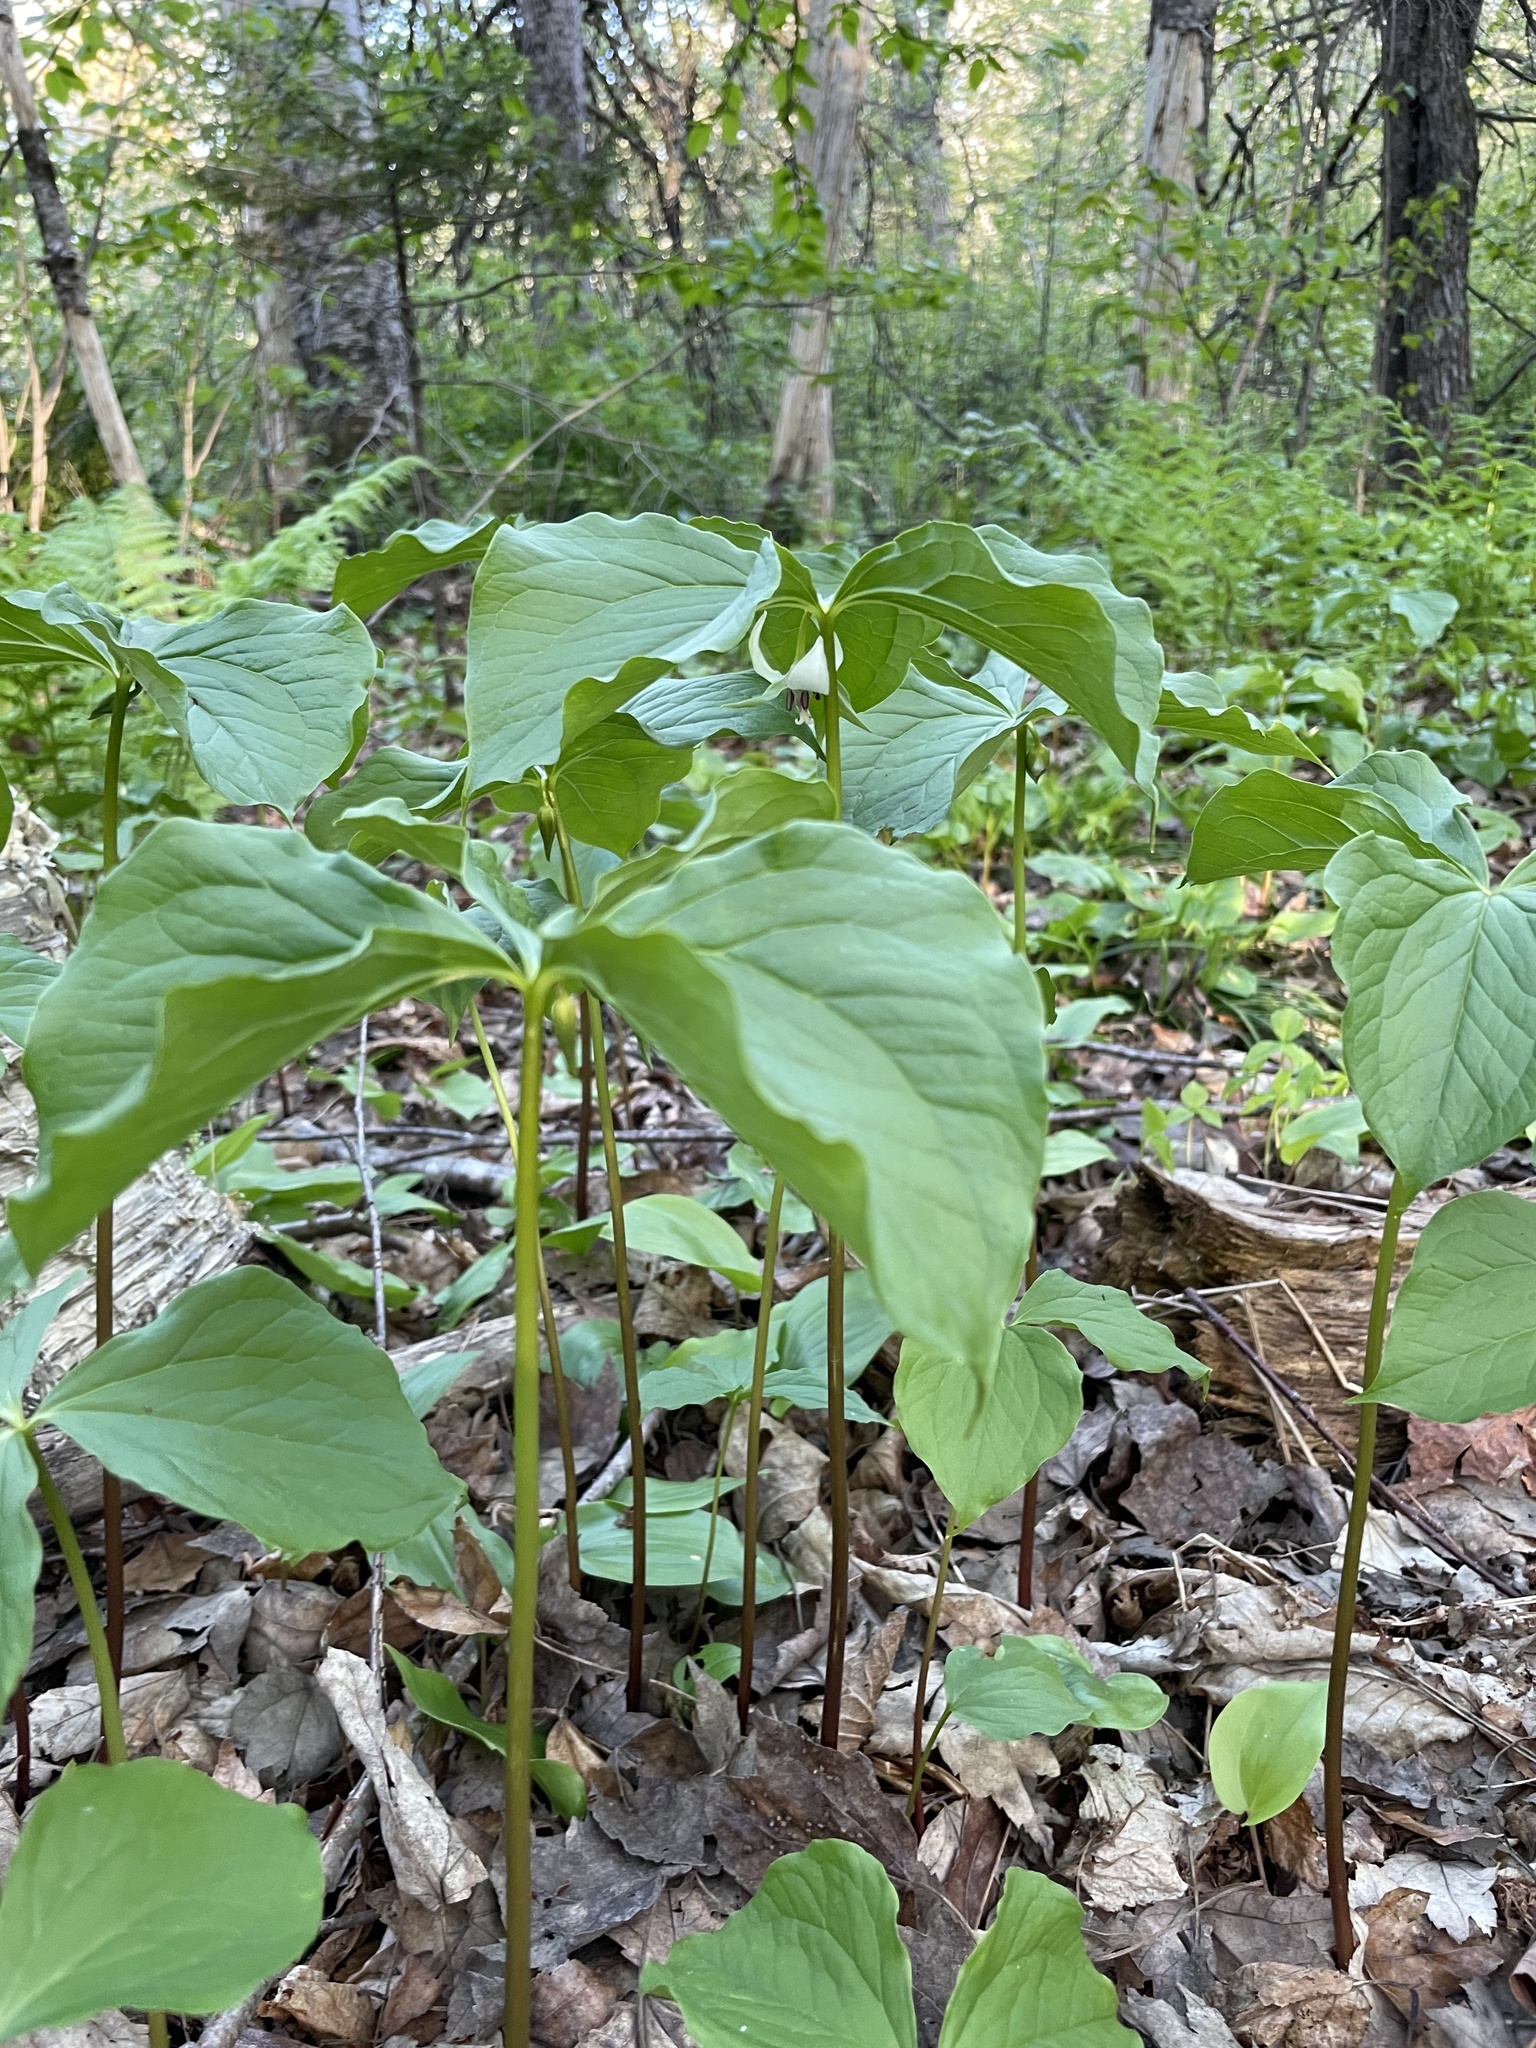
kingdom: Plantae
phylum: Tracheophyta
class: Liliopsida
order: Liliales
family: Melanthiaceae
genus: Trillium
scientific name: Trillium cernuum
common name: Nodding trillium
